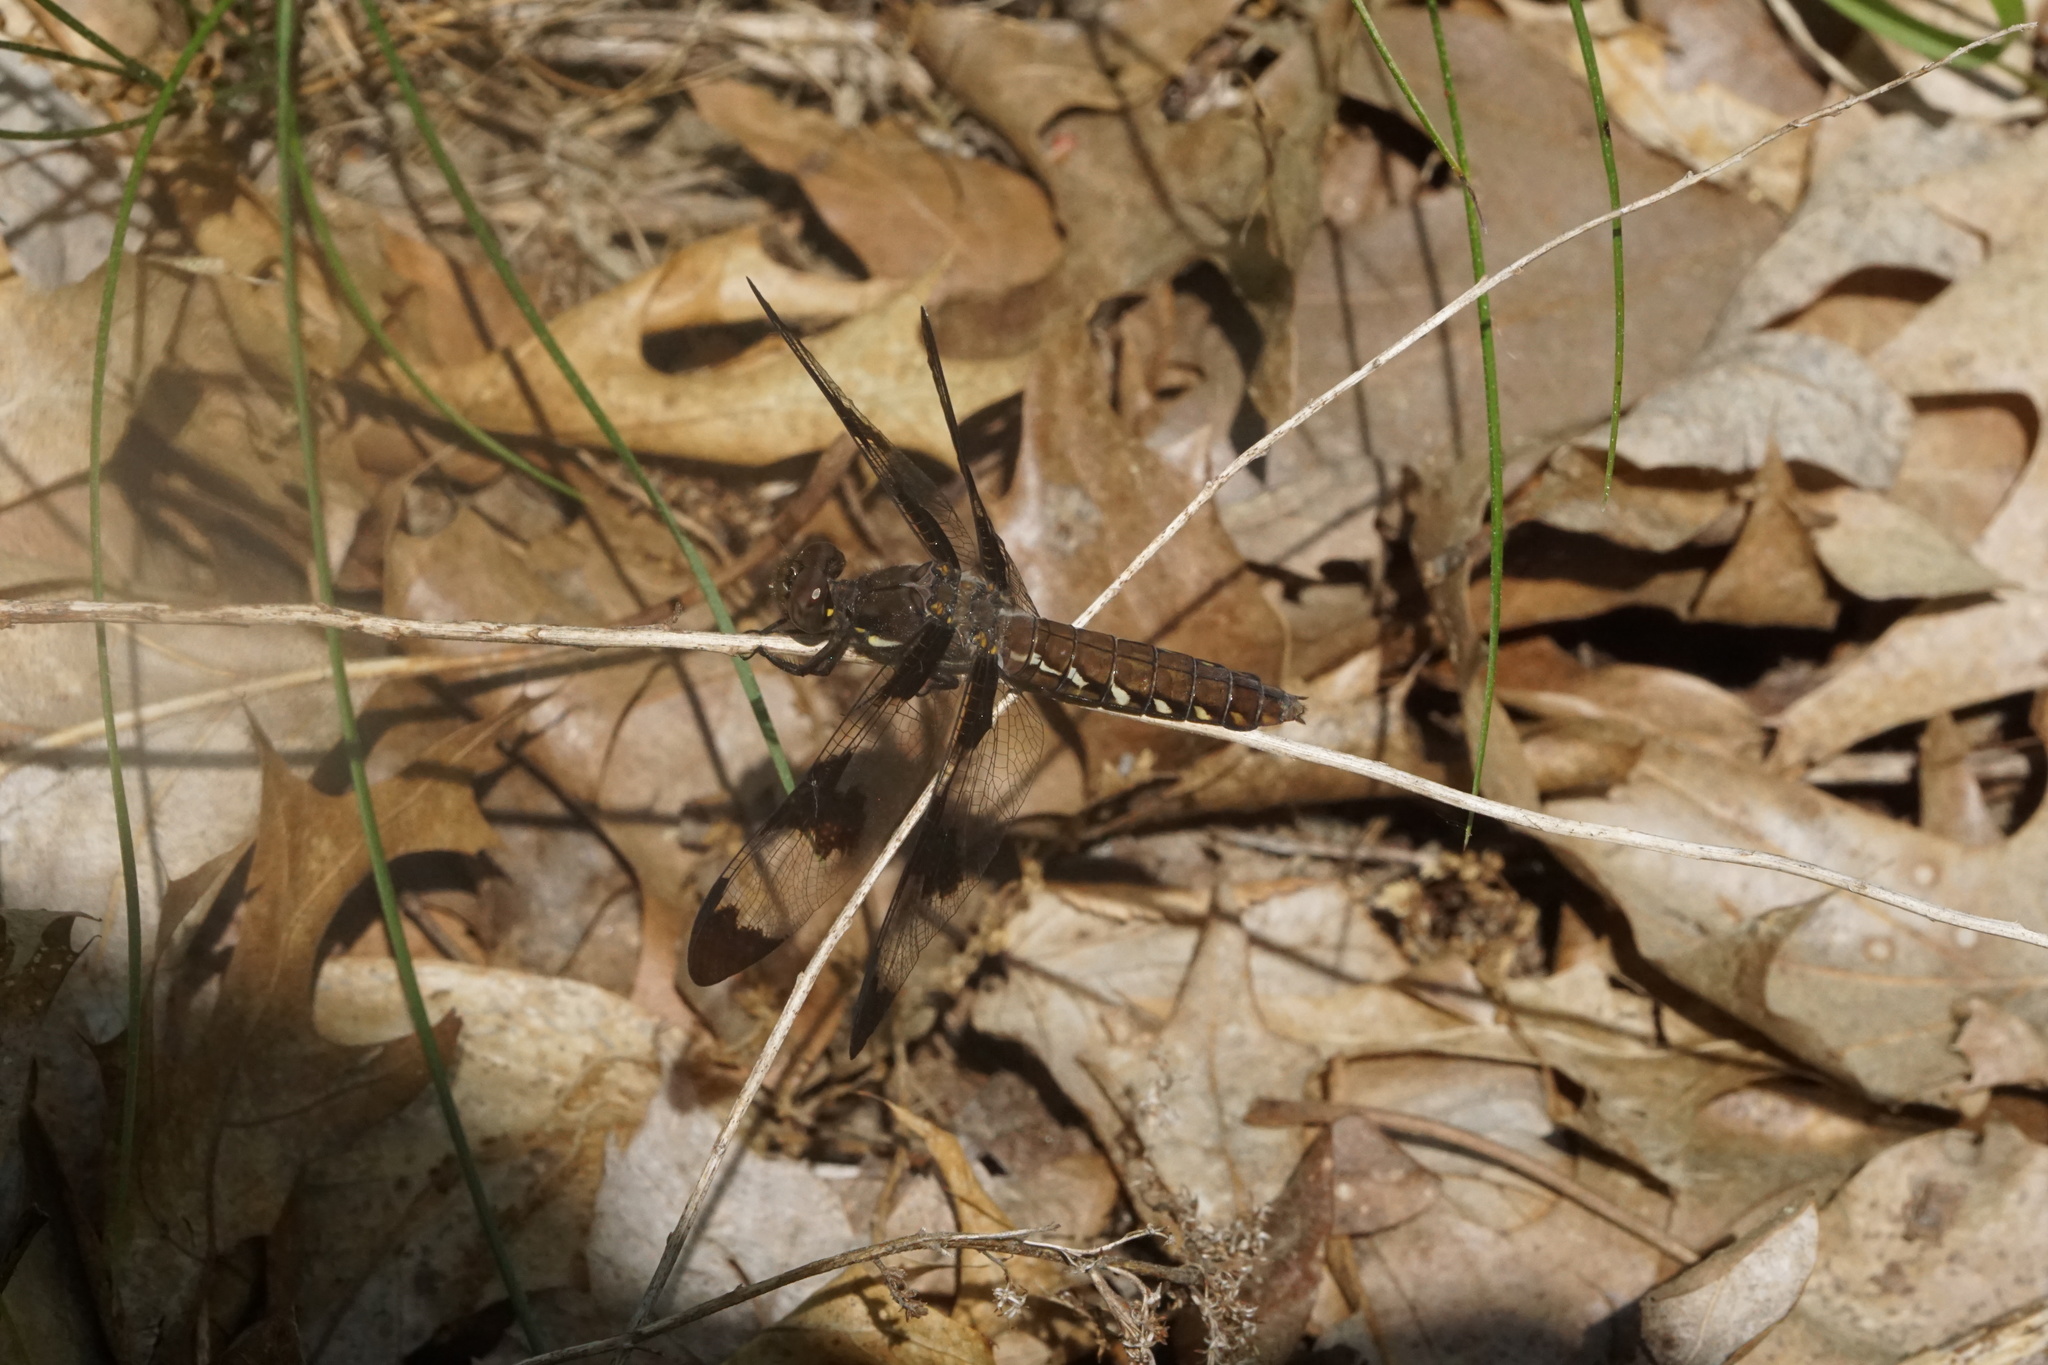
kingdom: Animalia
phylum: Arthropoda
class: Insecta
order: Odonata
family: Libellulidae
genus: Plathemis
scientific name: Plathemis lydia
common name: Common whitetail
